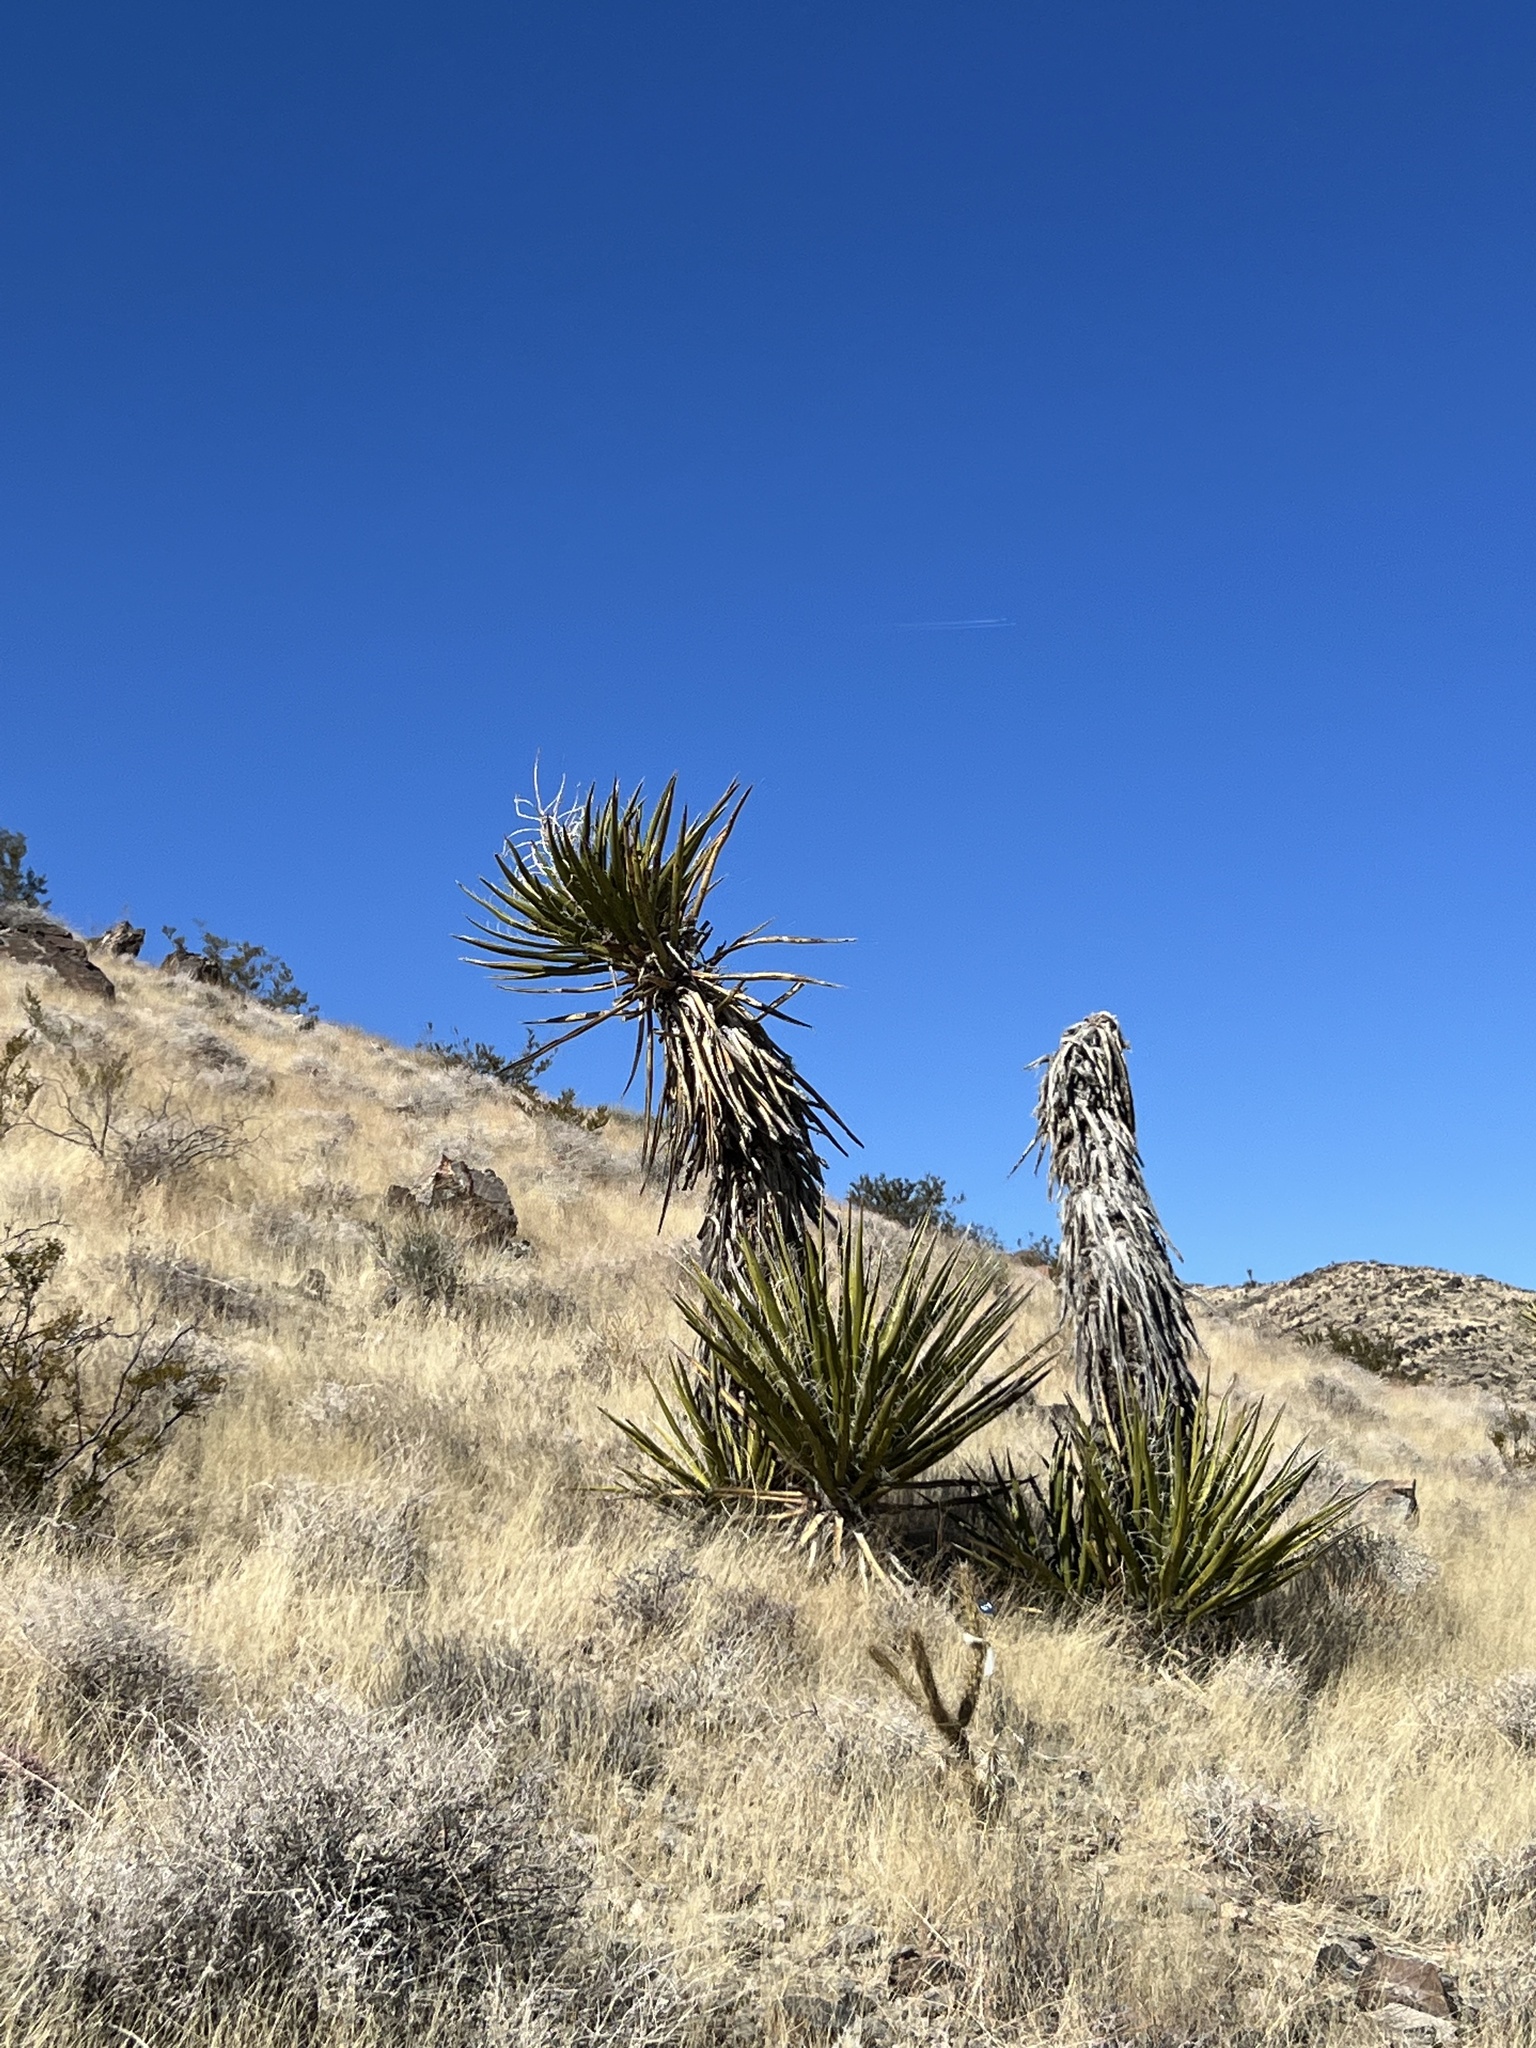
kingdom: Plantae
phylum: Tracheophyta
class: Liliopsida
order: Asparagales
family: Asparagaceae
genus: Yucca
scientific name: Yucca schidigera
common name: Mojave yucca
